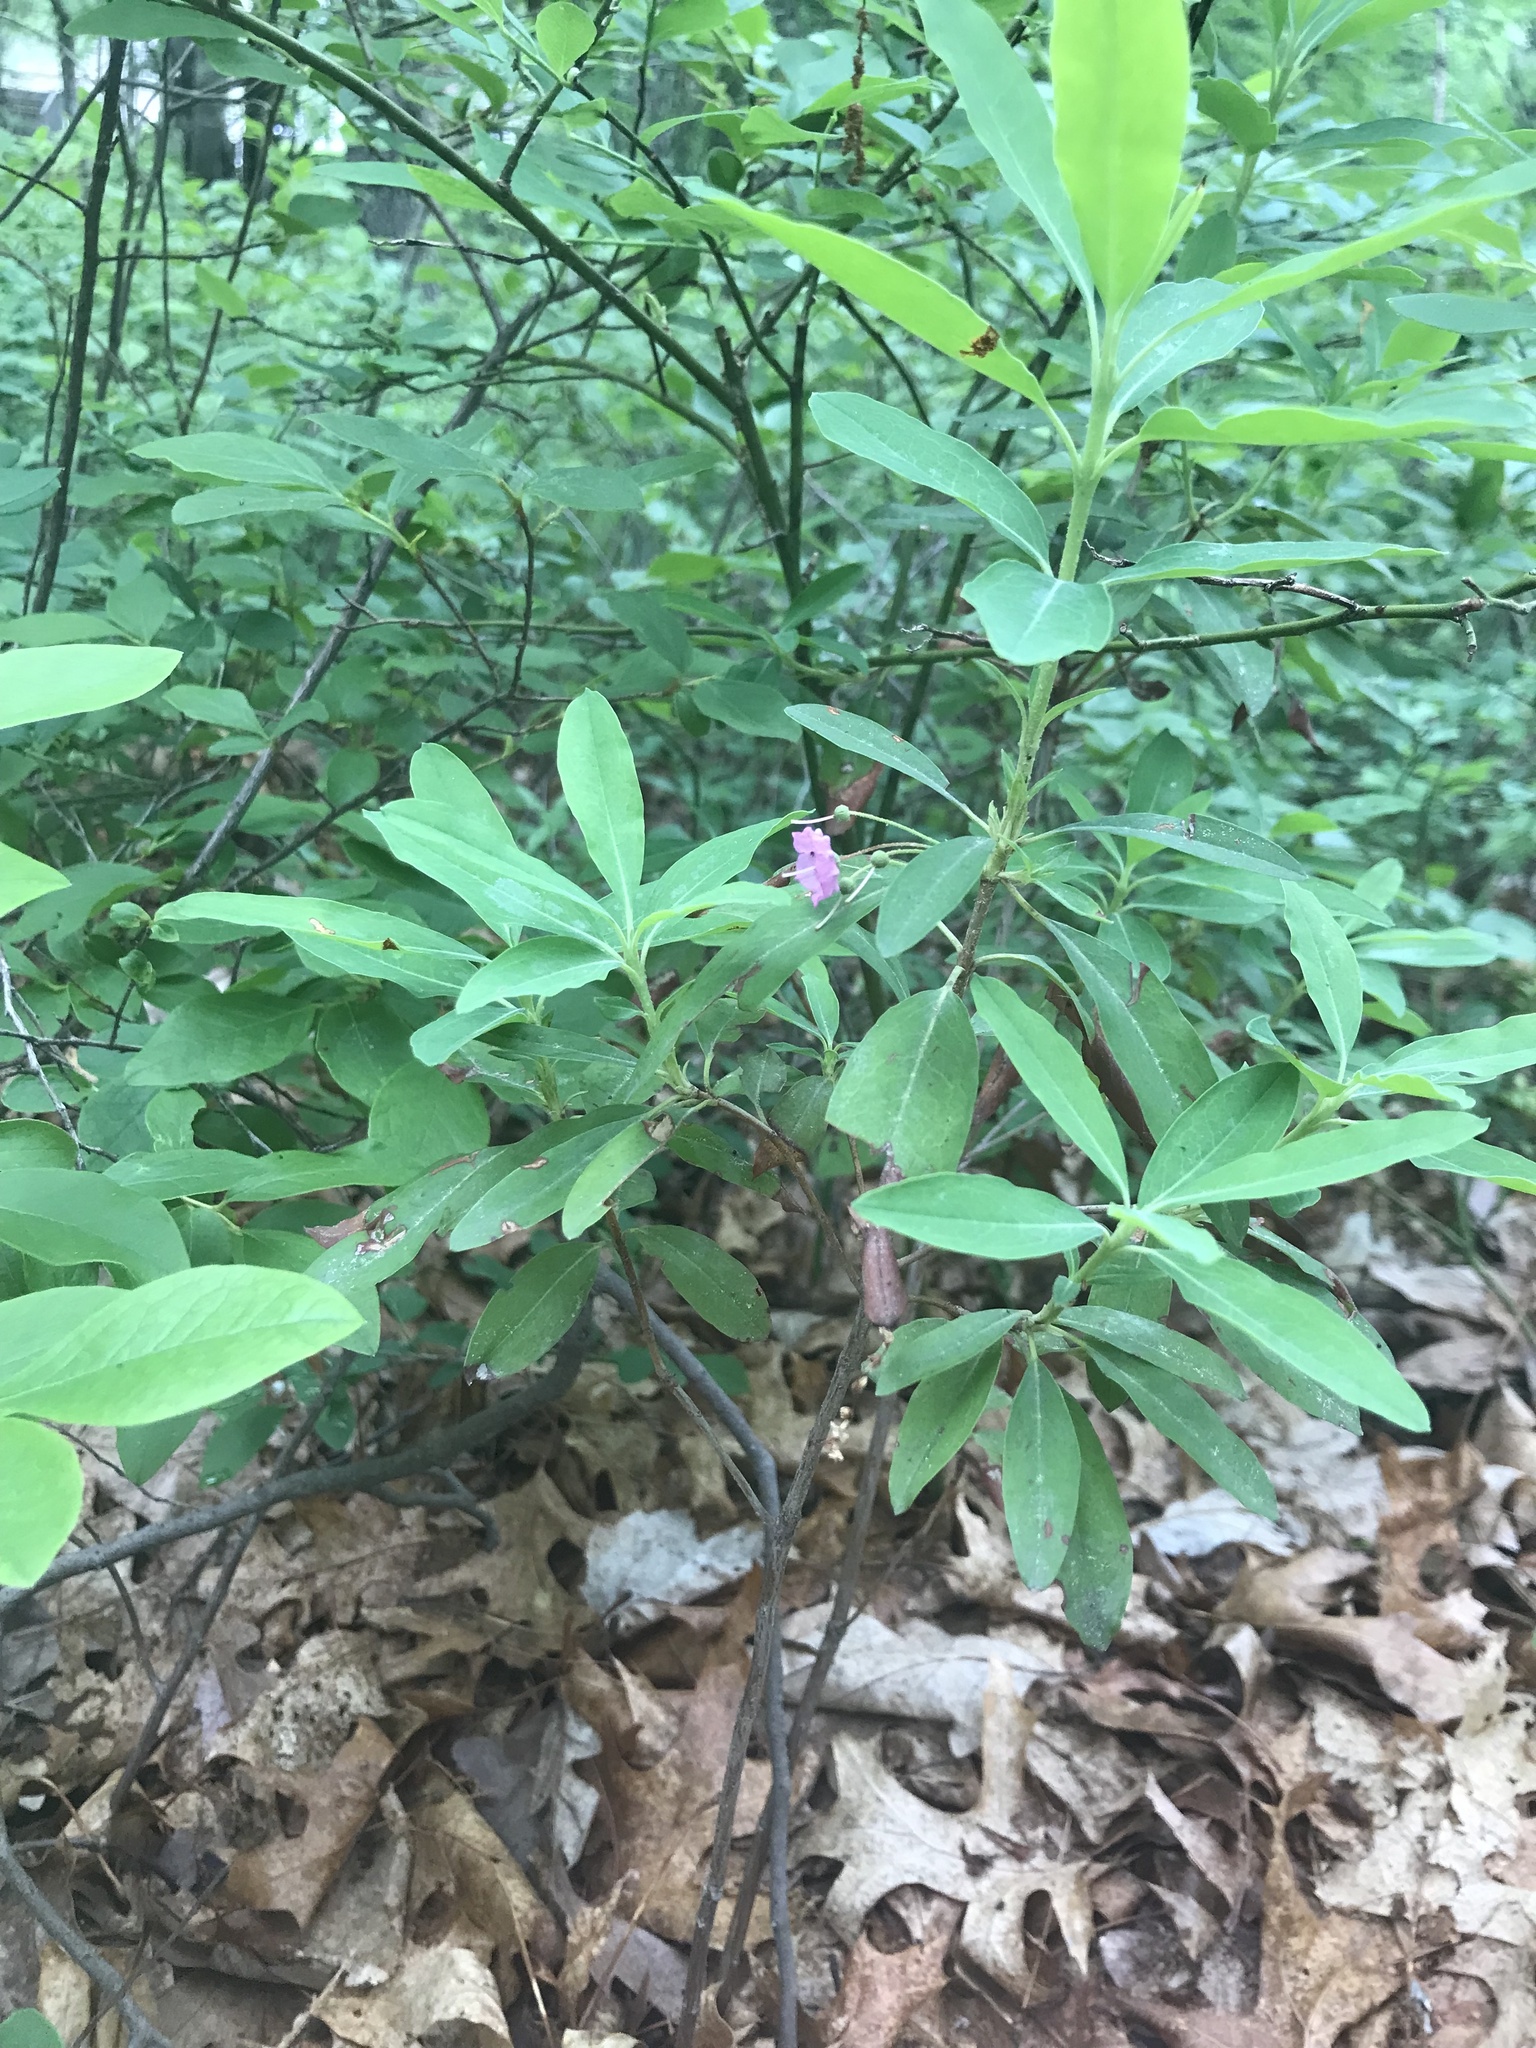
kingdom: Plantae
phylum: Tracheophyta
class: Magnoliopsida
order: Ericales
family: Ericaceae
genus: Kalmia
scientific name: Kalmia angustifolia
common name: Sheep-laurel
